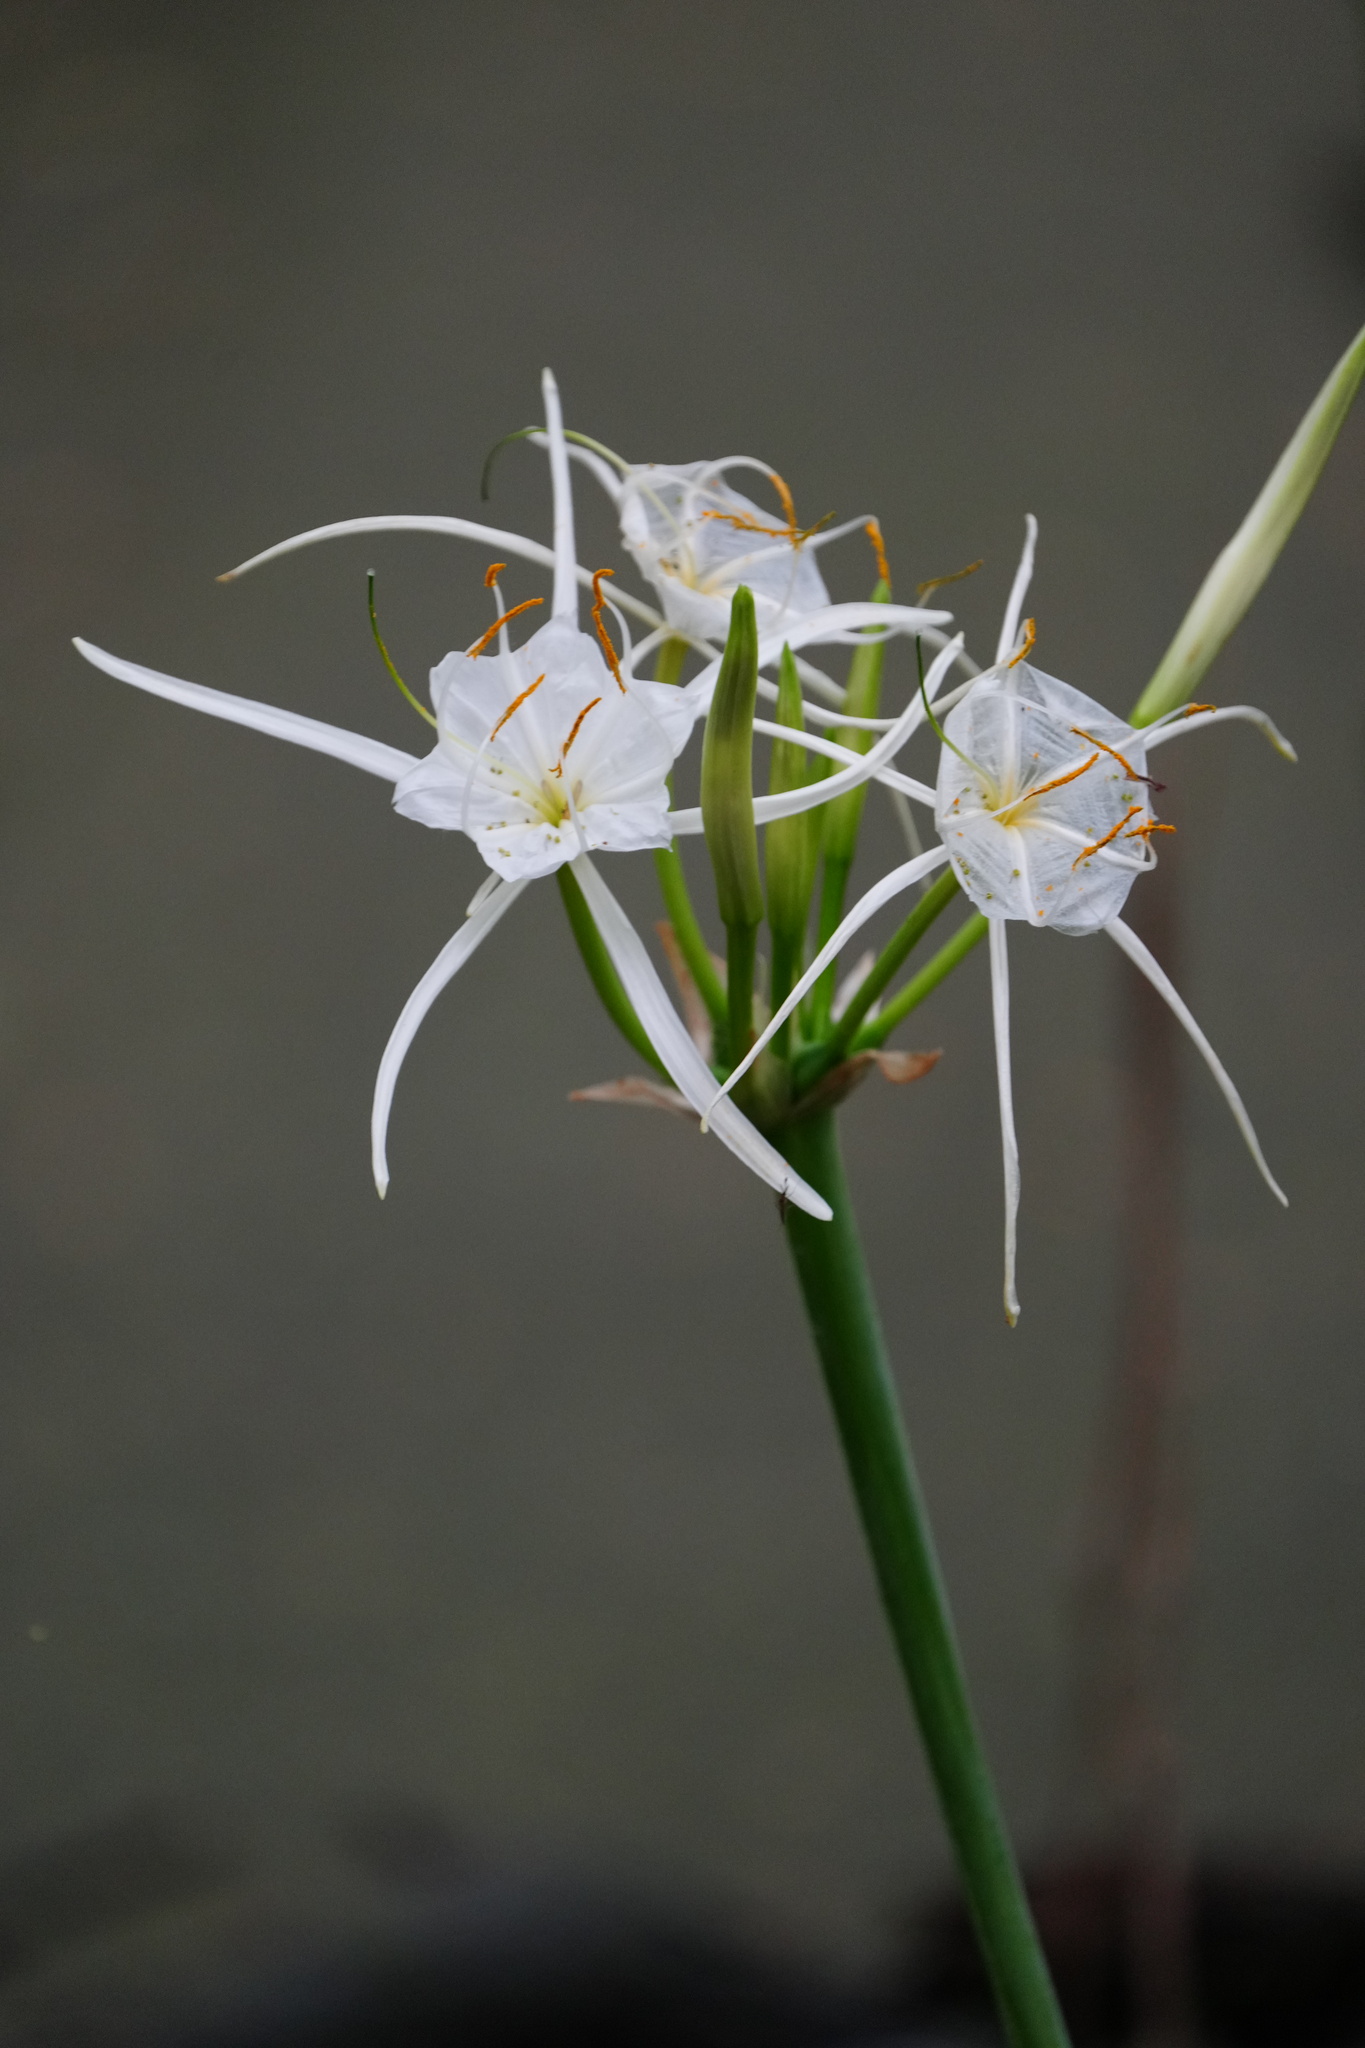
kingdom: Plantae
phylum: Tracheophyta
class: Liliopsida
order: Asparagales
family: Amaryllidaceae
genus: Hymenocallis
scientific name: Hymenocallis liriosme
